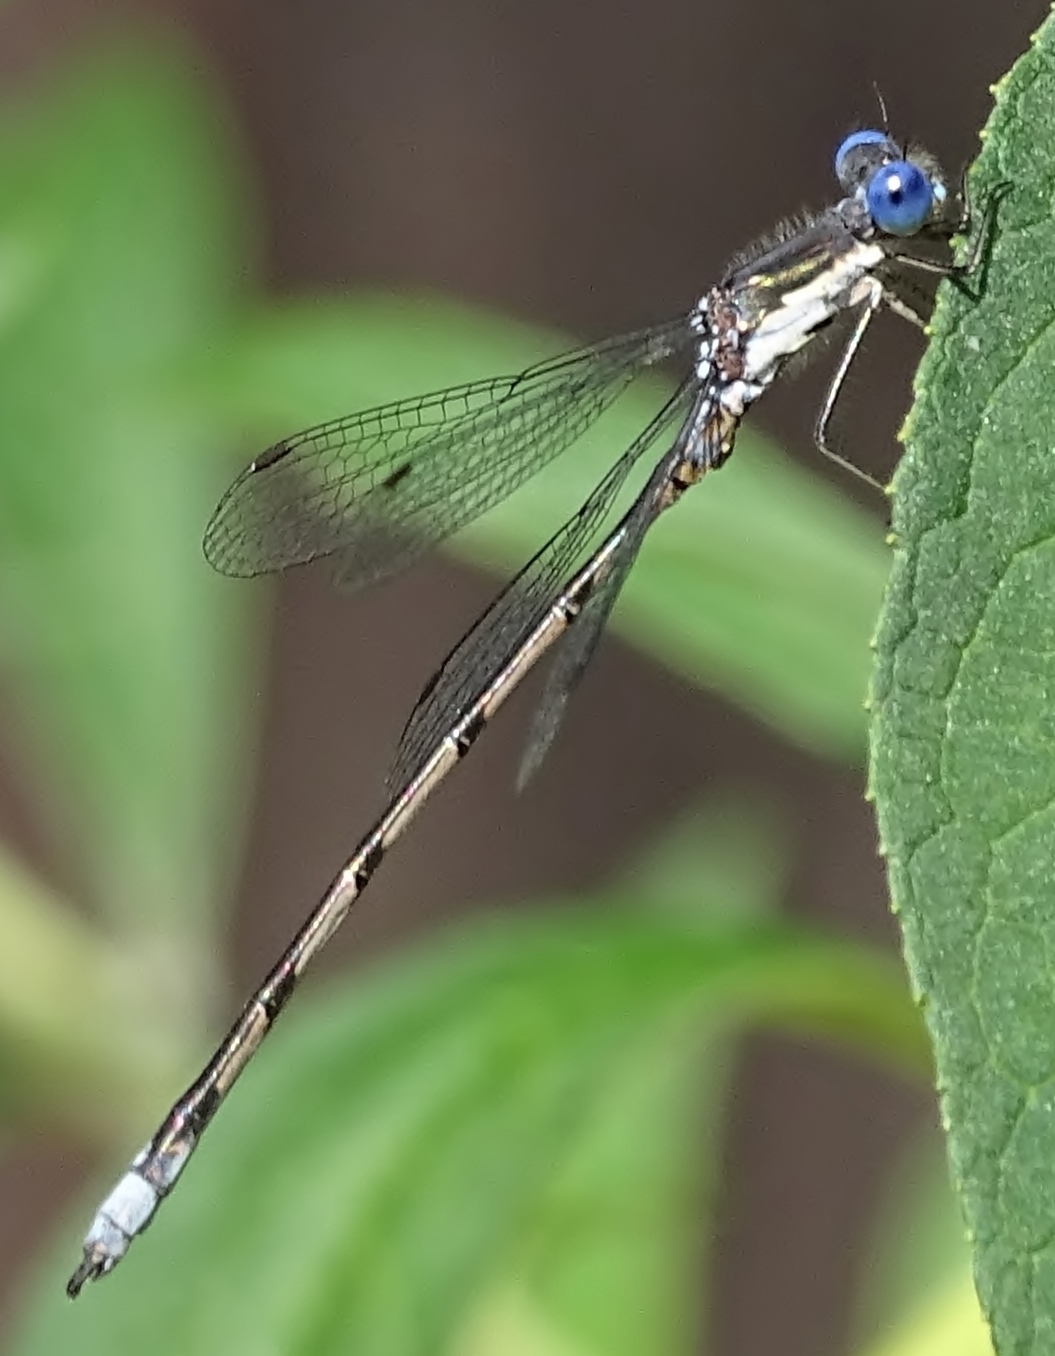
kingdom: Animalia
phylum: Arthropoda
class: Insecta
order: Odonata
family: Lestidae
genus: Lestes
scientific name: Lestes congener
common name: Spotted spreadwing
